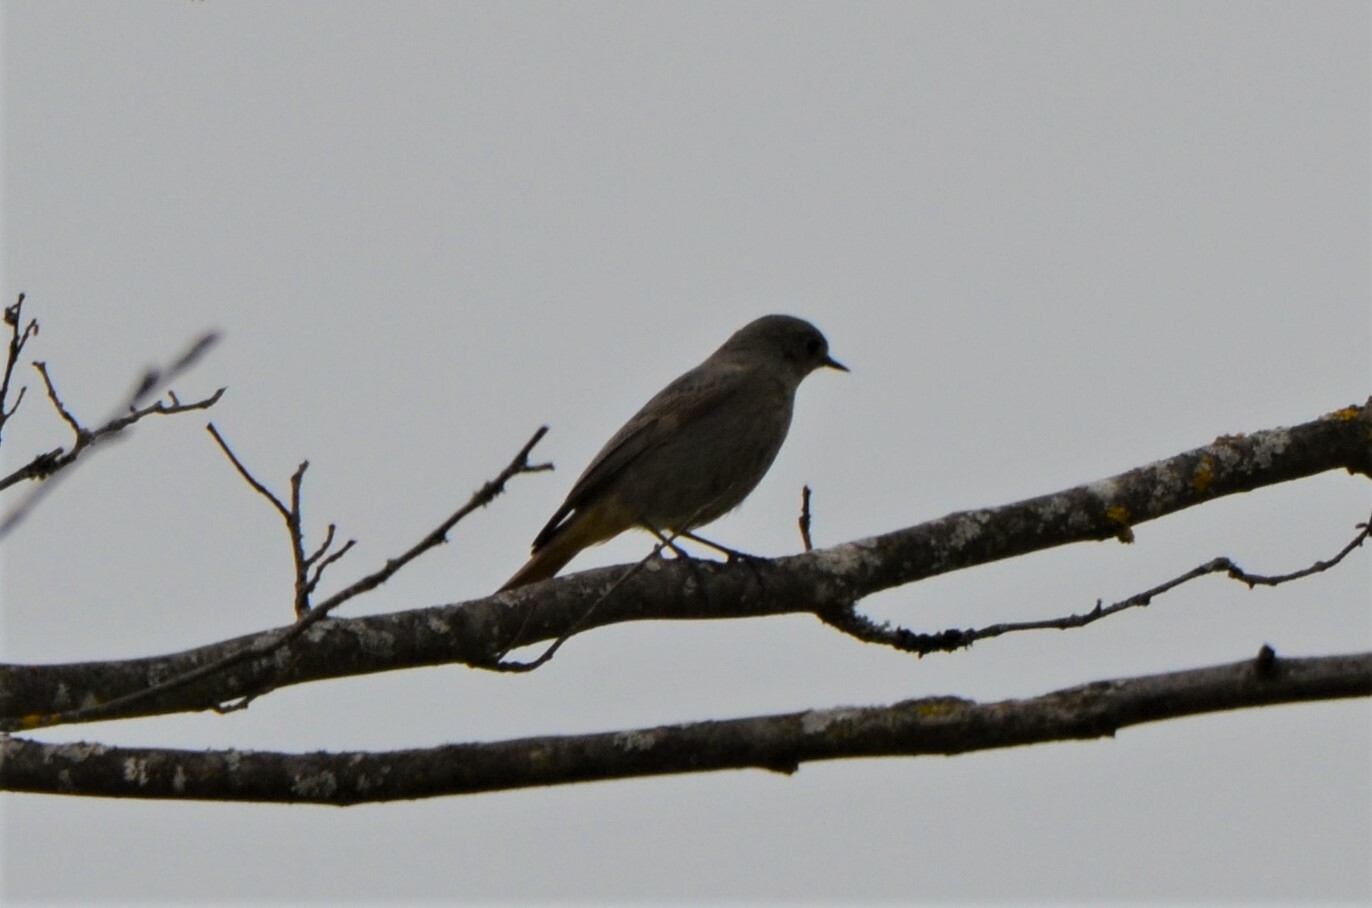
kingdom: Animalia
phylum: Chordata
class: Aves
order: Passeriformes
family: Muscicapidae
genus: Phoenicurus
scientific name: Phoenicurus ochruros
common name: Black redstart
